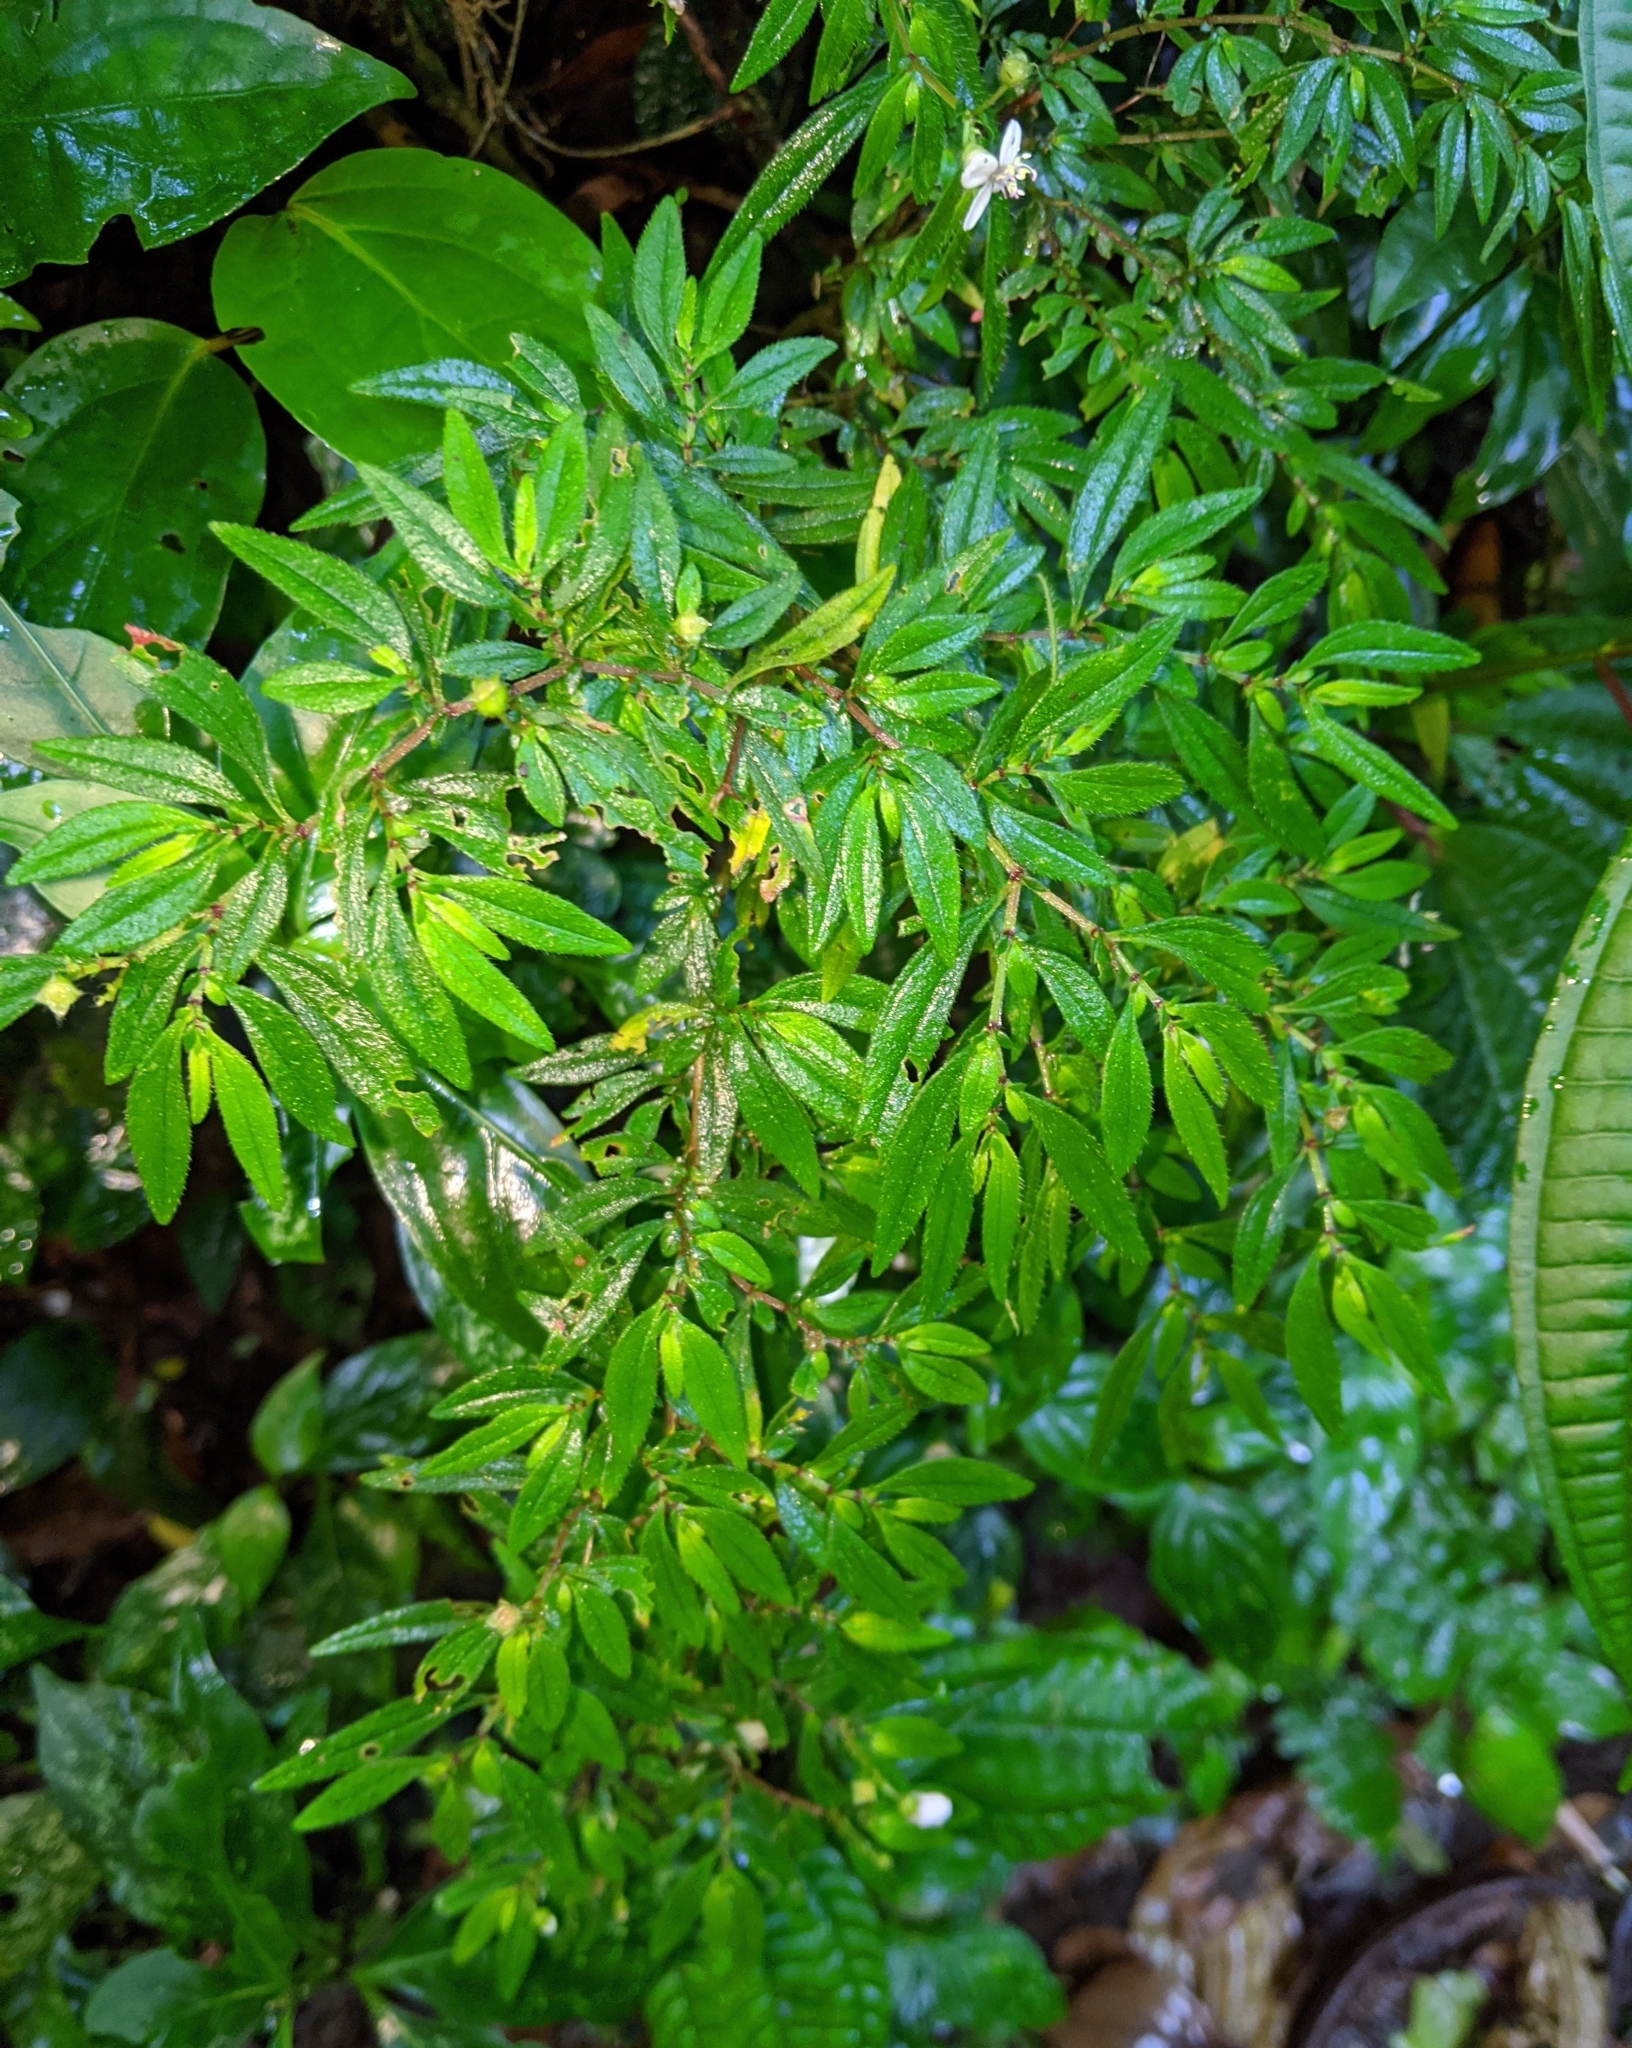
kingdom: Plantae
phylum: Tracheophyta
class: Magnoliopsida
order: Myrtales
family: Melastomataceae
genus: Centradenia
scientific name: Centradenia inaequilateralis
